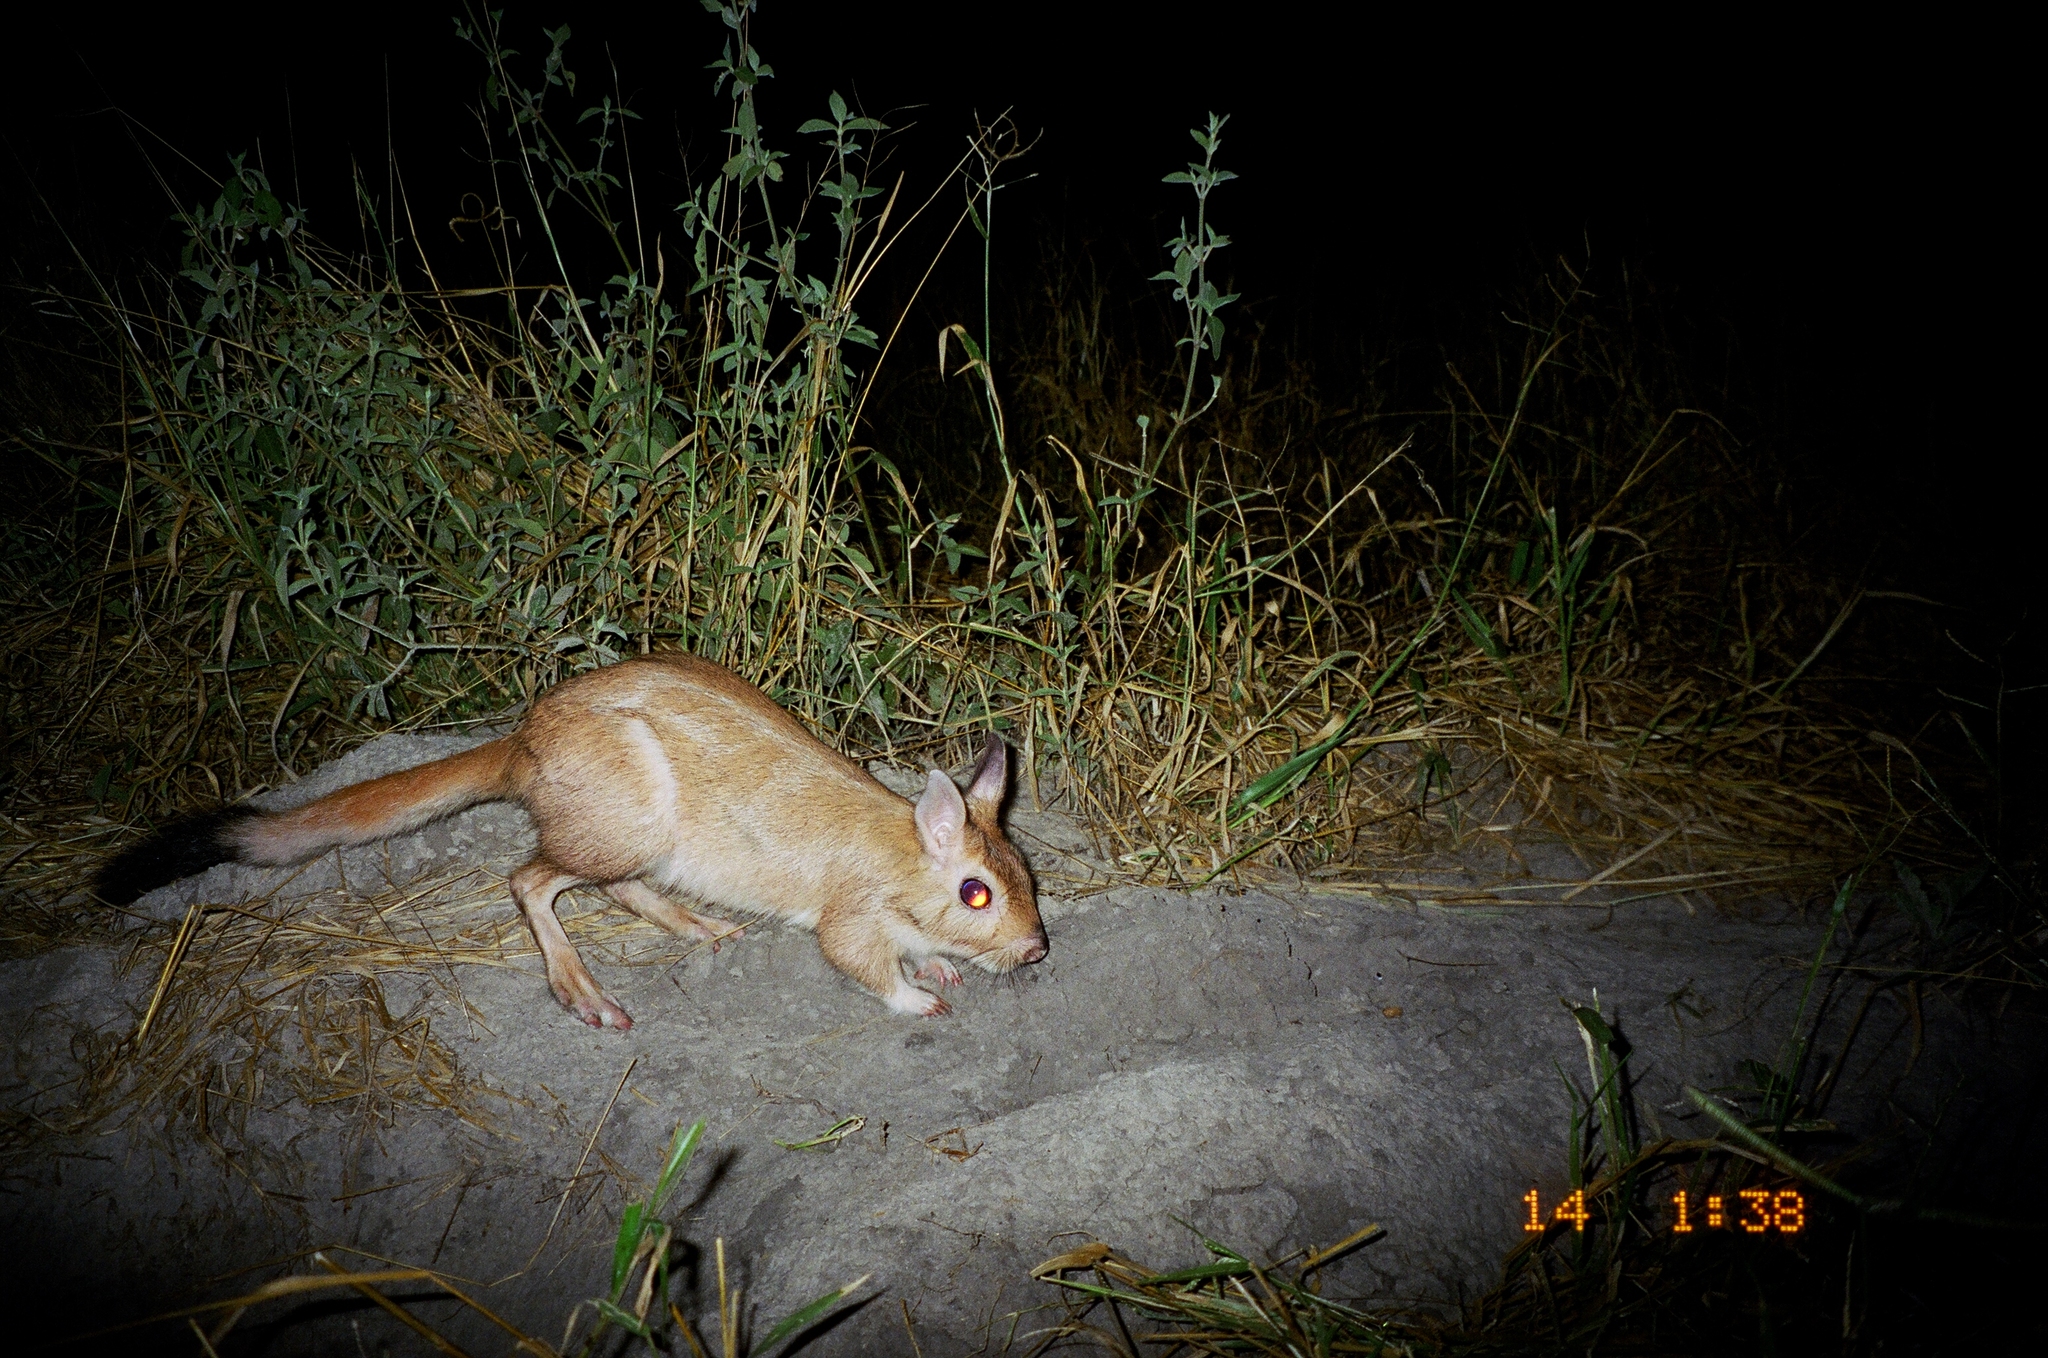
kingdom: Animalia
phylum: Chordata
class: Mammalia
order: Rodentia
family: Pedetidae
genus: Pedetes
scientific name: Pedetes capensis
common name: South african spring hare
